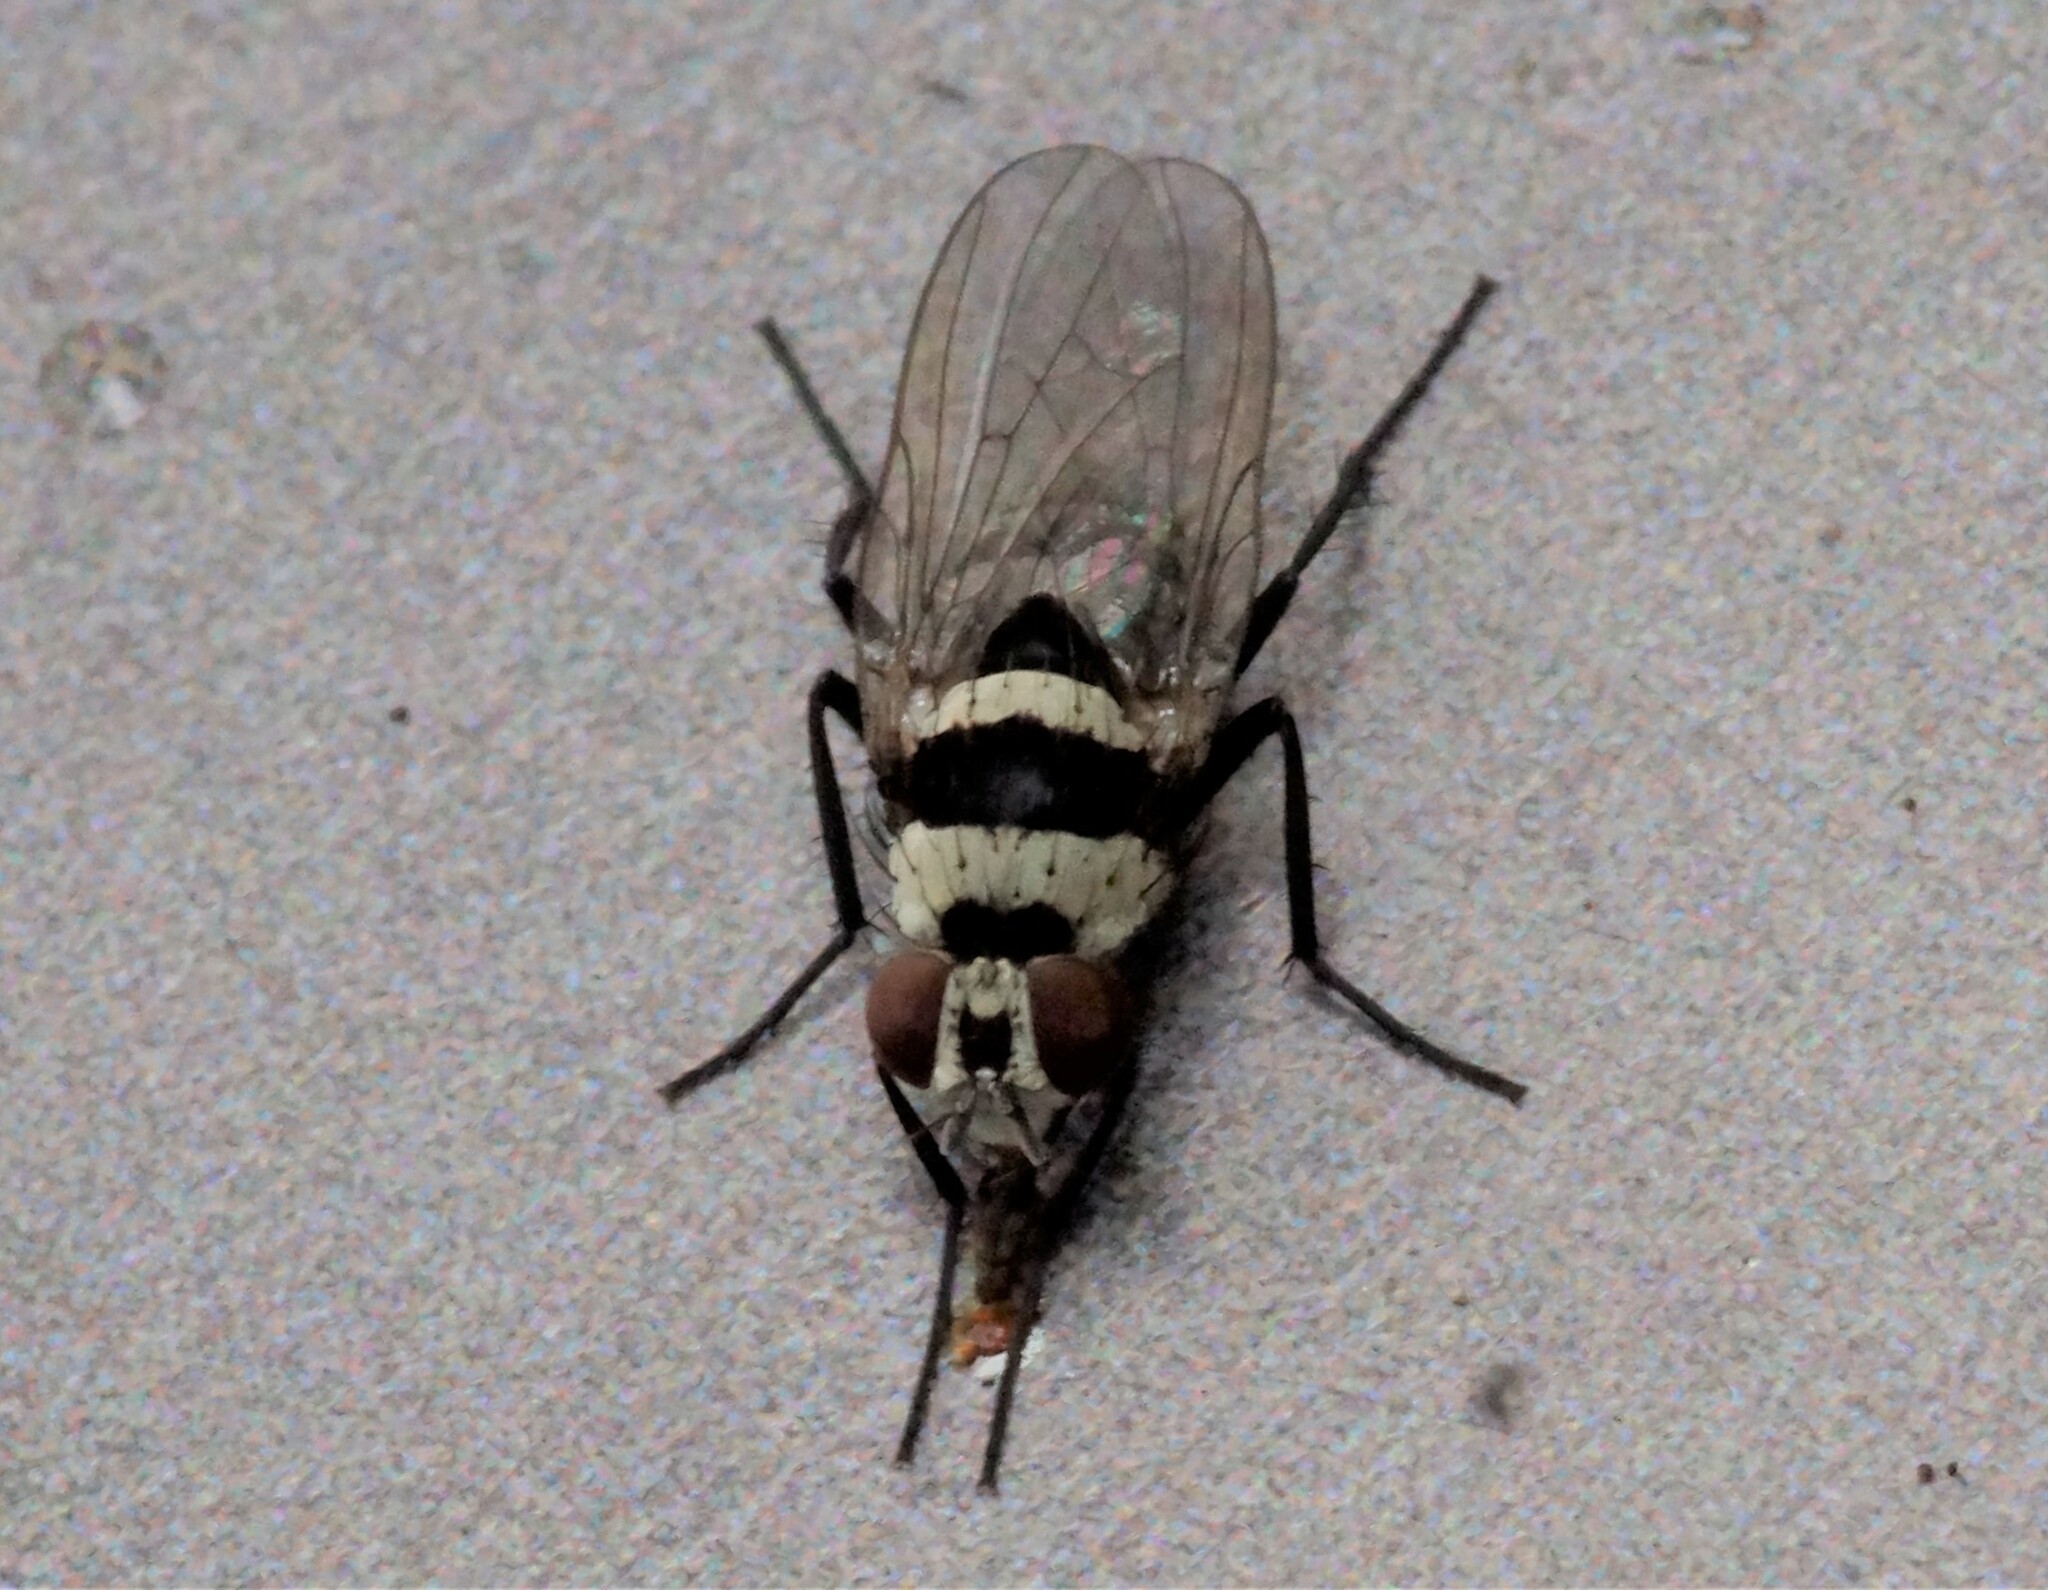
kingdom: Animalia
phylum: Arthropoda
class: Insecta
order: Diptera
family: Anthomyiidae
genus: Anthomyia
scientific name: Anthomyia medialis
